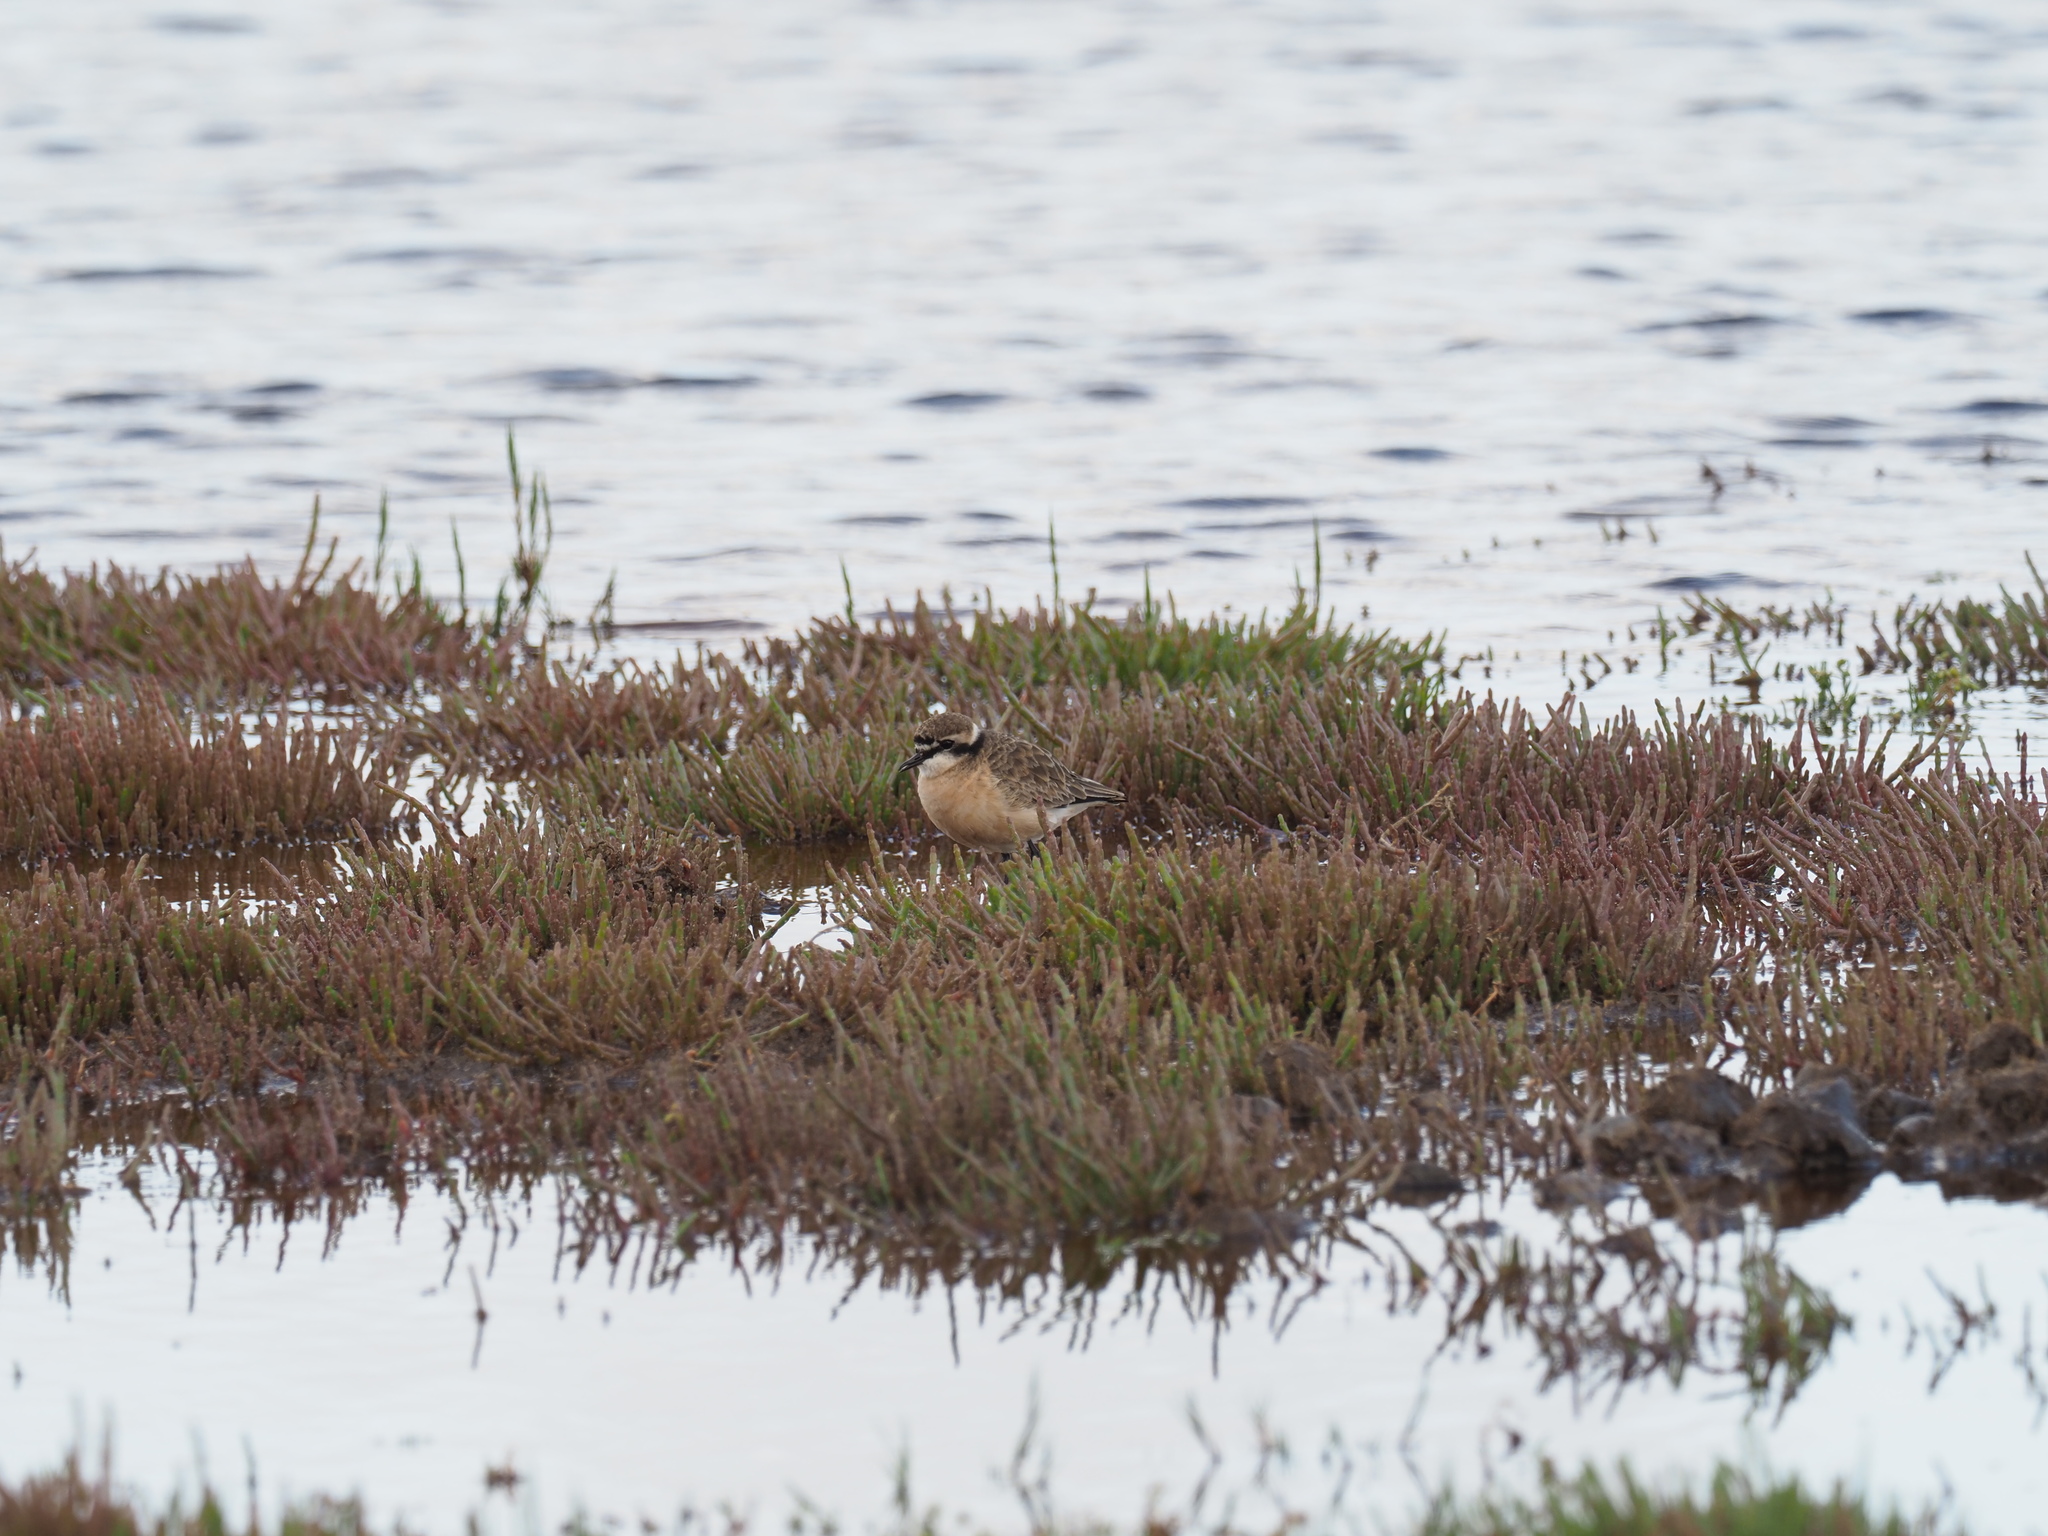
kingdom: Animalia
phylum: Chordata
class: Aves
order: Charadriiformes
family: Charadriidae
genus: Anarhynchus
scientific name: Anarhynchus
